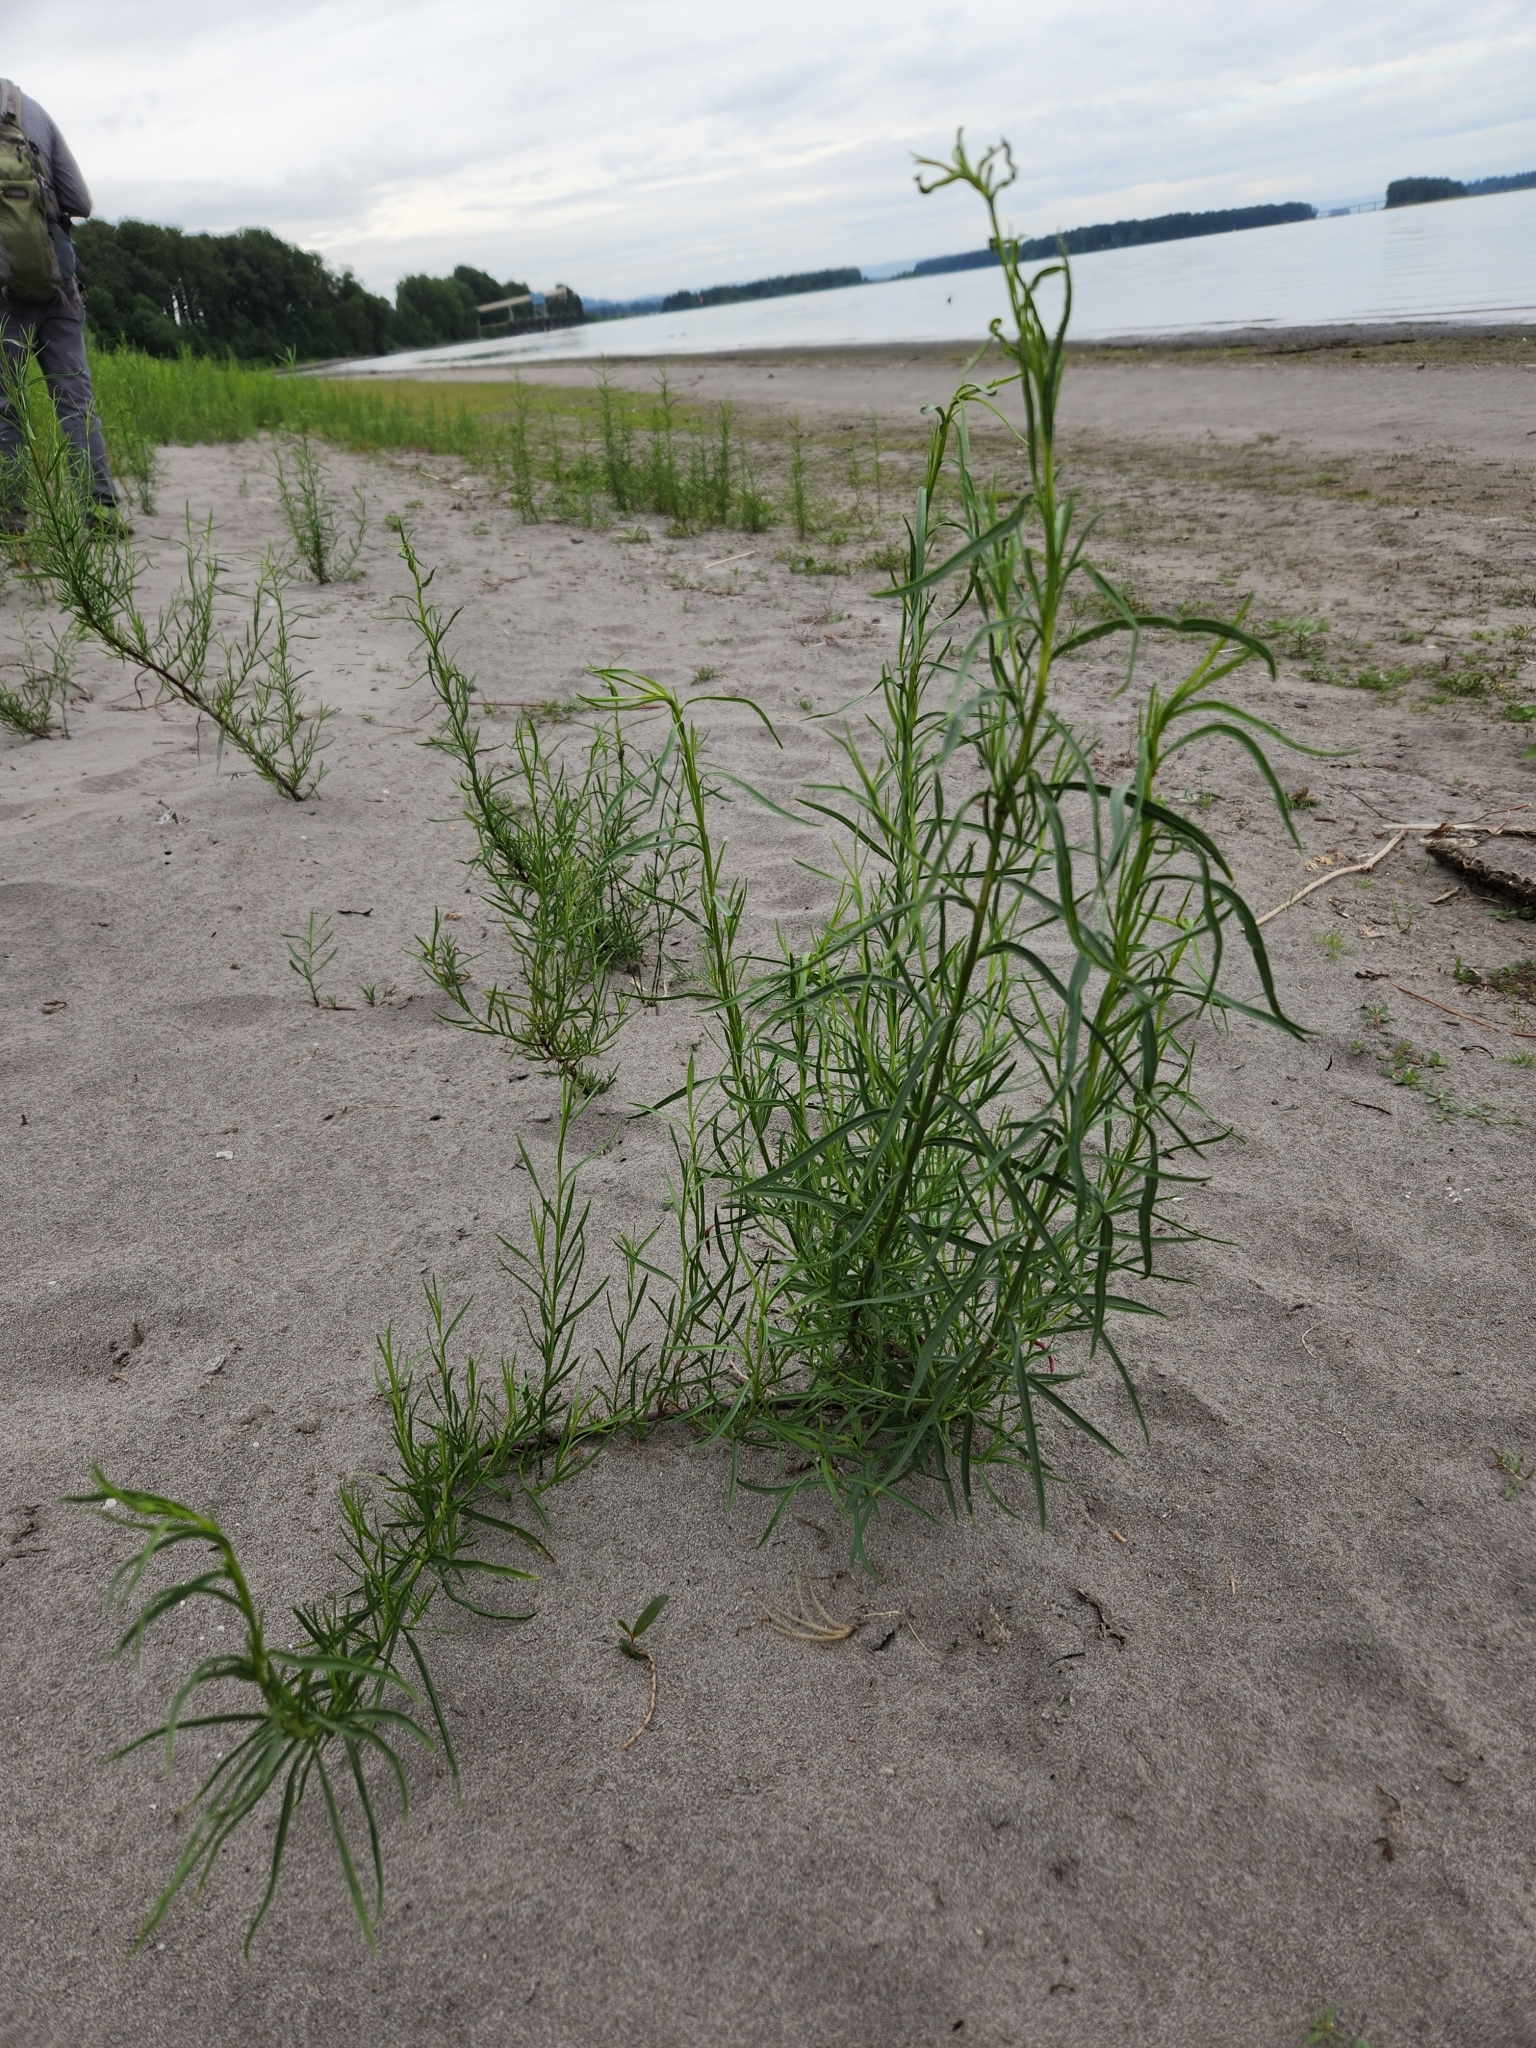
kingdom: Plantae
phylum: Tracheophyta
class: Magnoliopsida
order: Asterales
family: Asteraceae
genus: Erigeron
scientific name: Erigeron canadensis
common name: Canadian fleabane
